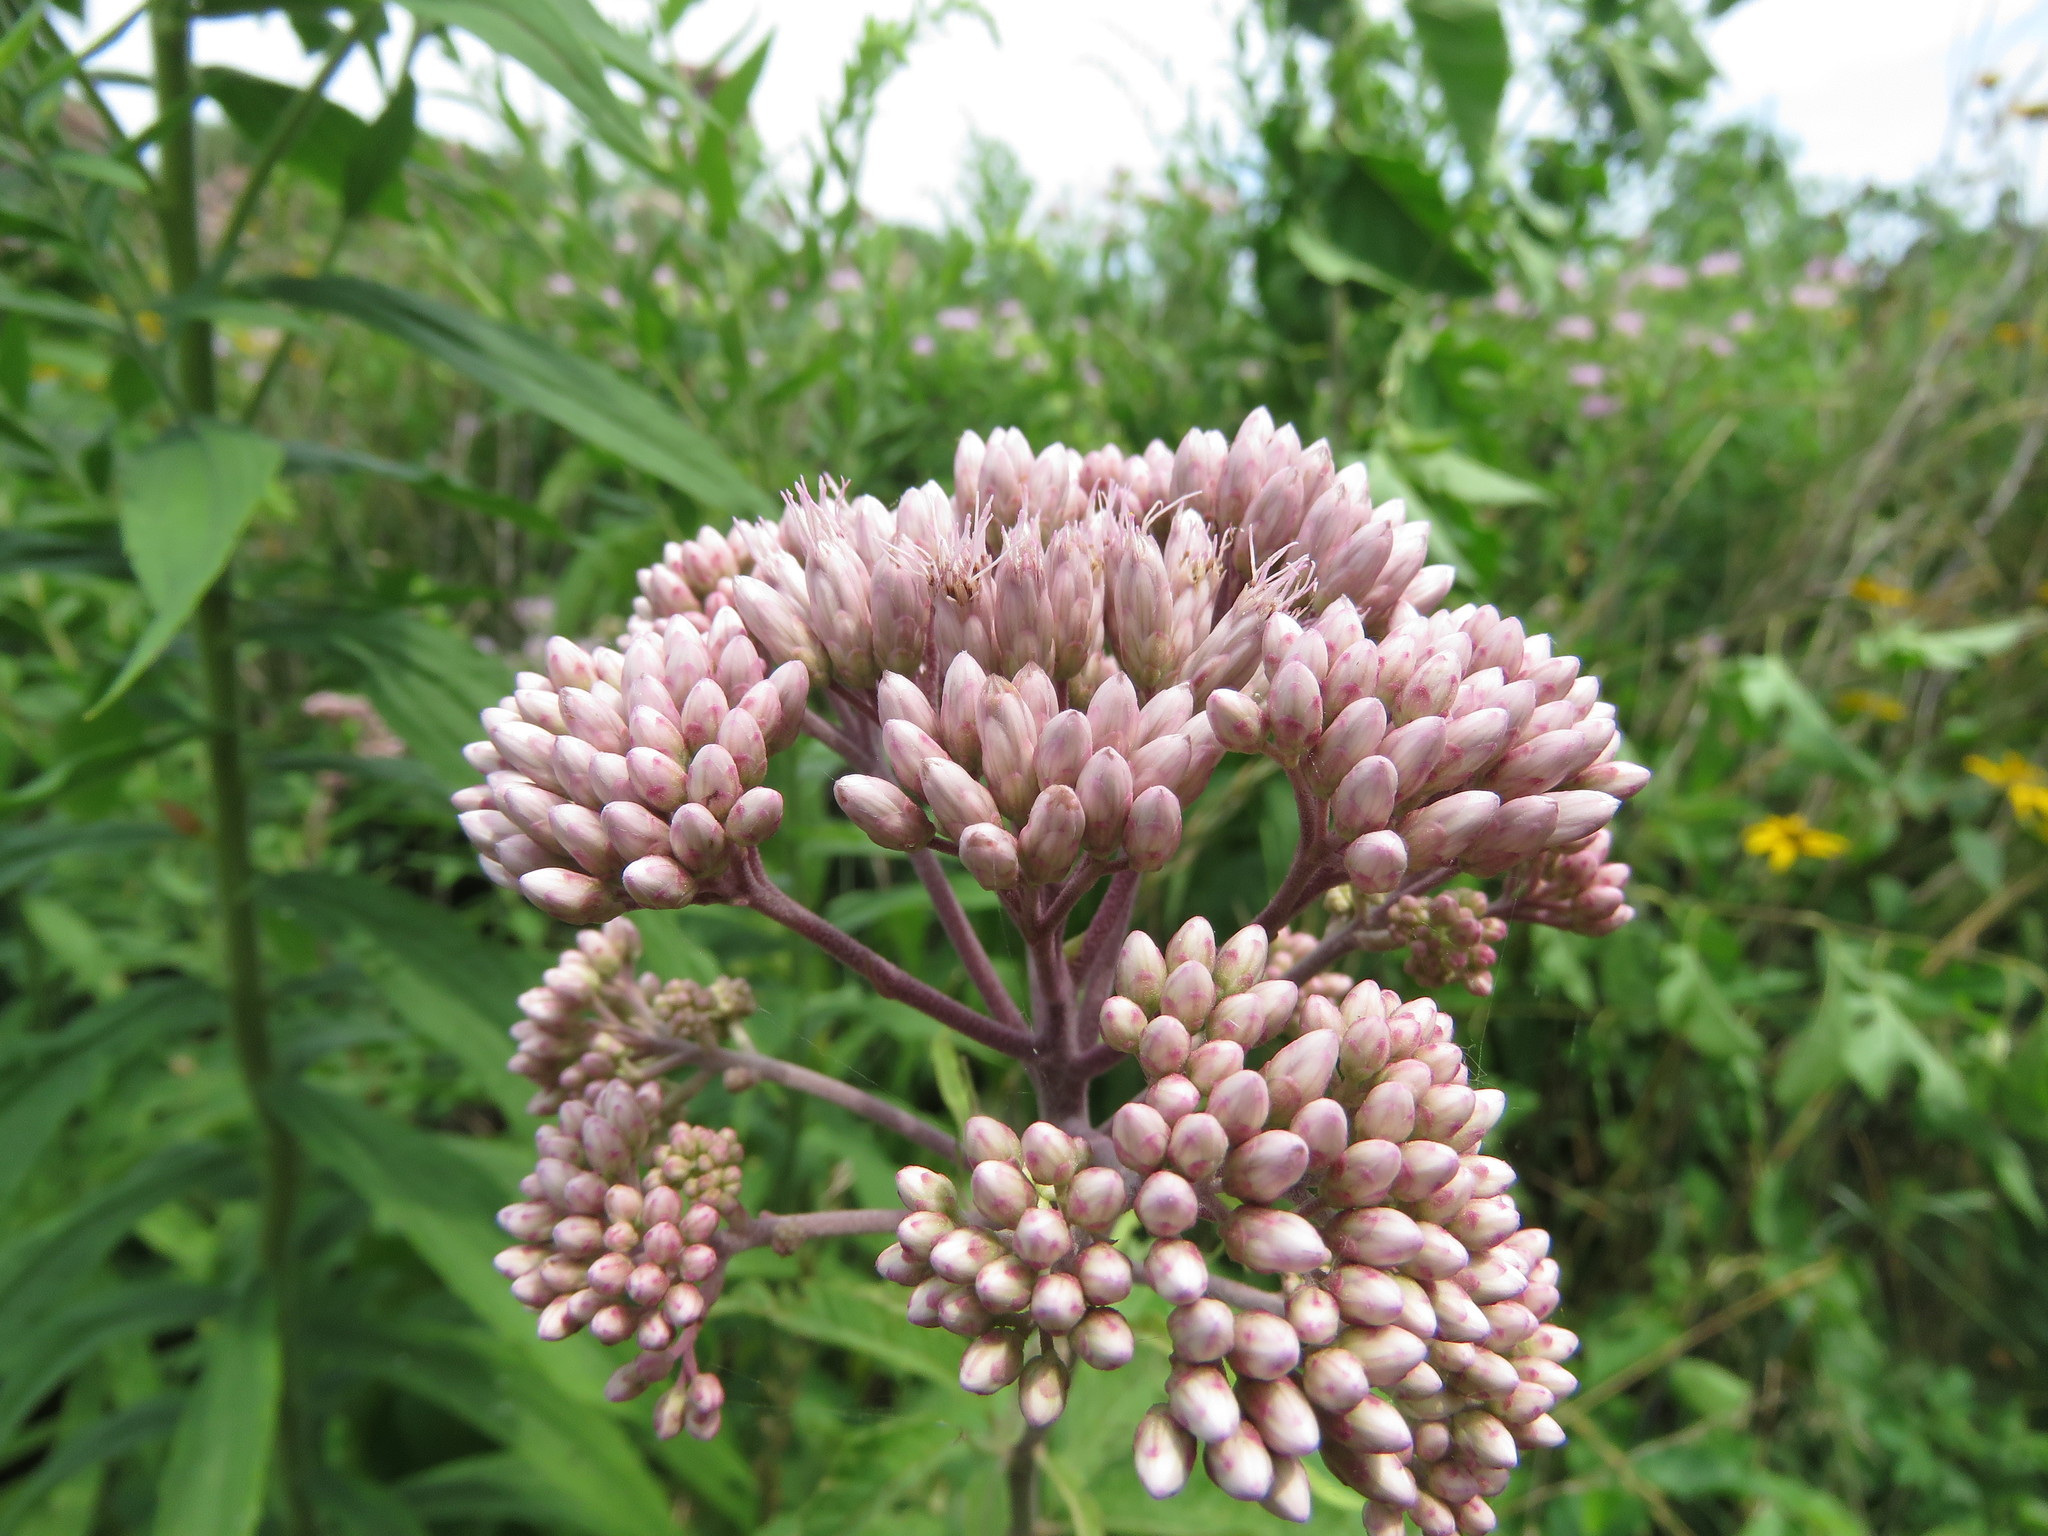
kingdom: Plantae
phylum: Tracheophyta
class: Magnoliopsida
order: Asterales
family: Asteraceae
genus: Eutrochium
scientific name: Eutrochium maculatum
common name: Spotted joe pye weed
